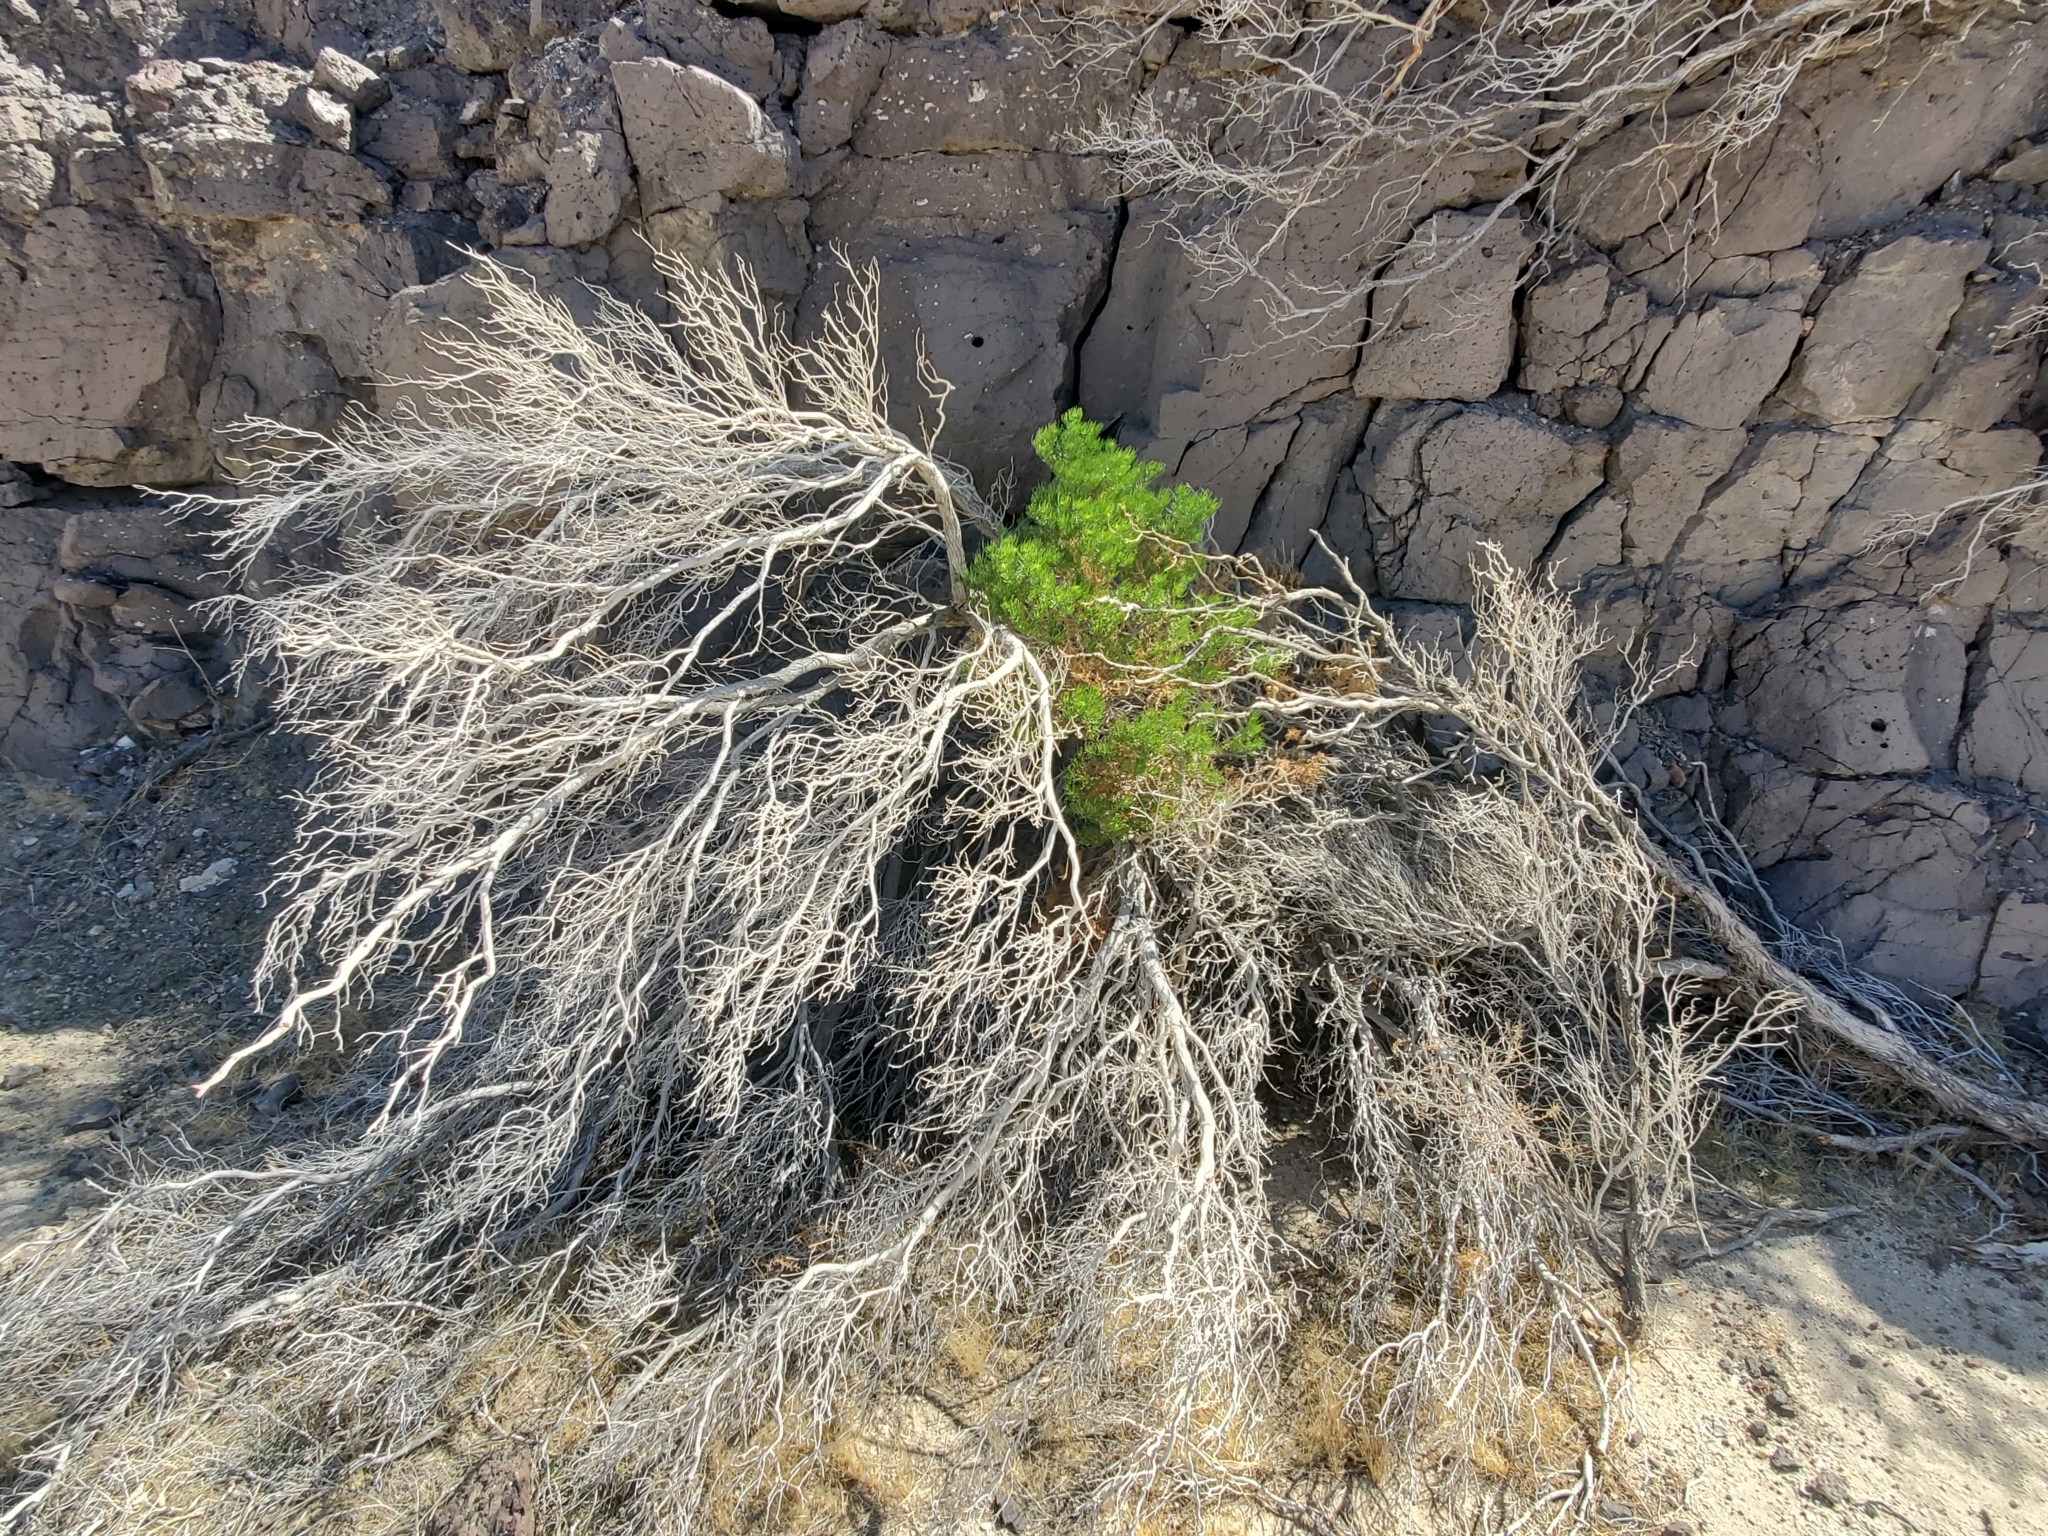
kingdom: Plantae
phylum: Tracheophyta
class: Magnoliopsida
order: Asterales
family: Asteraceae
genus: Peucephyllum
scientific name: Peucephyllum schottii
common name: Pygmy-cedar
